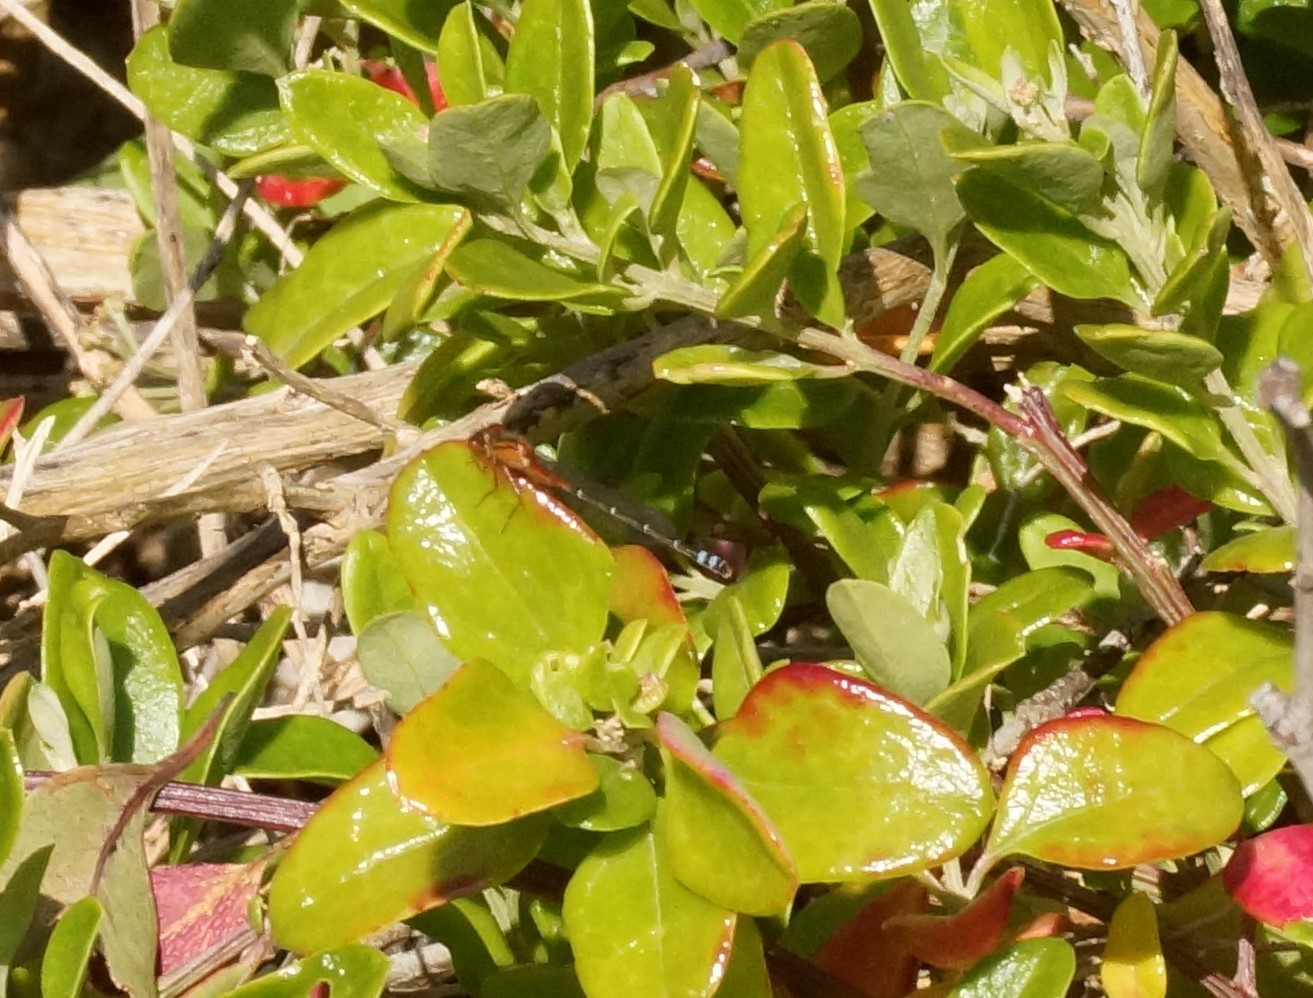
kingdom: Animalia
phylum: Arthropoda
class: Insecta
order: Odonata
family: Coenagrionidae
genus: Xanthagrion
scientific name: Xanthagrion erythroneurum
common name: Red and blue damsel
